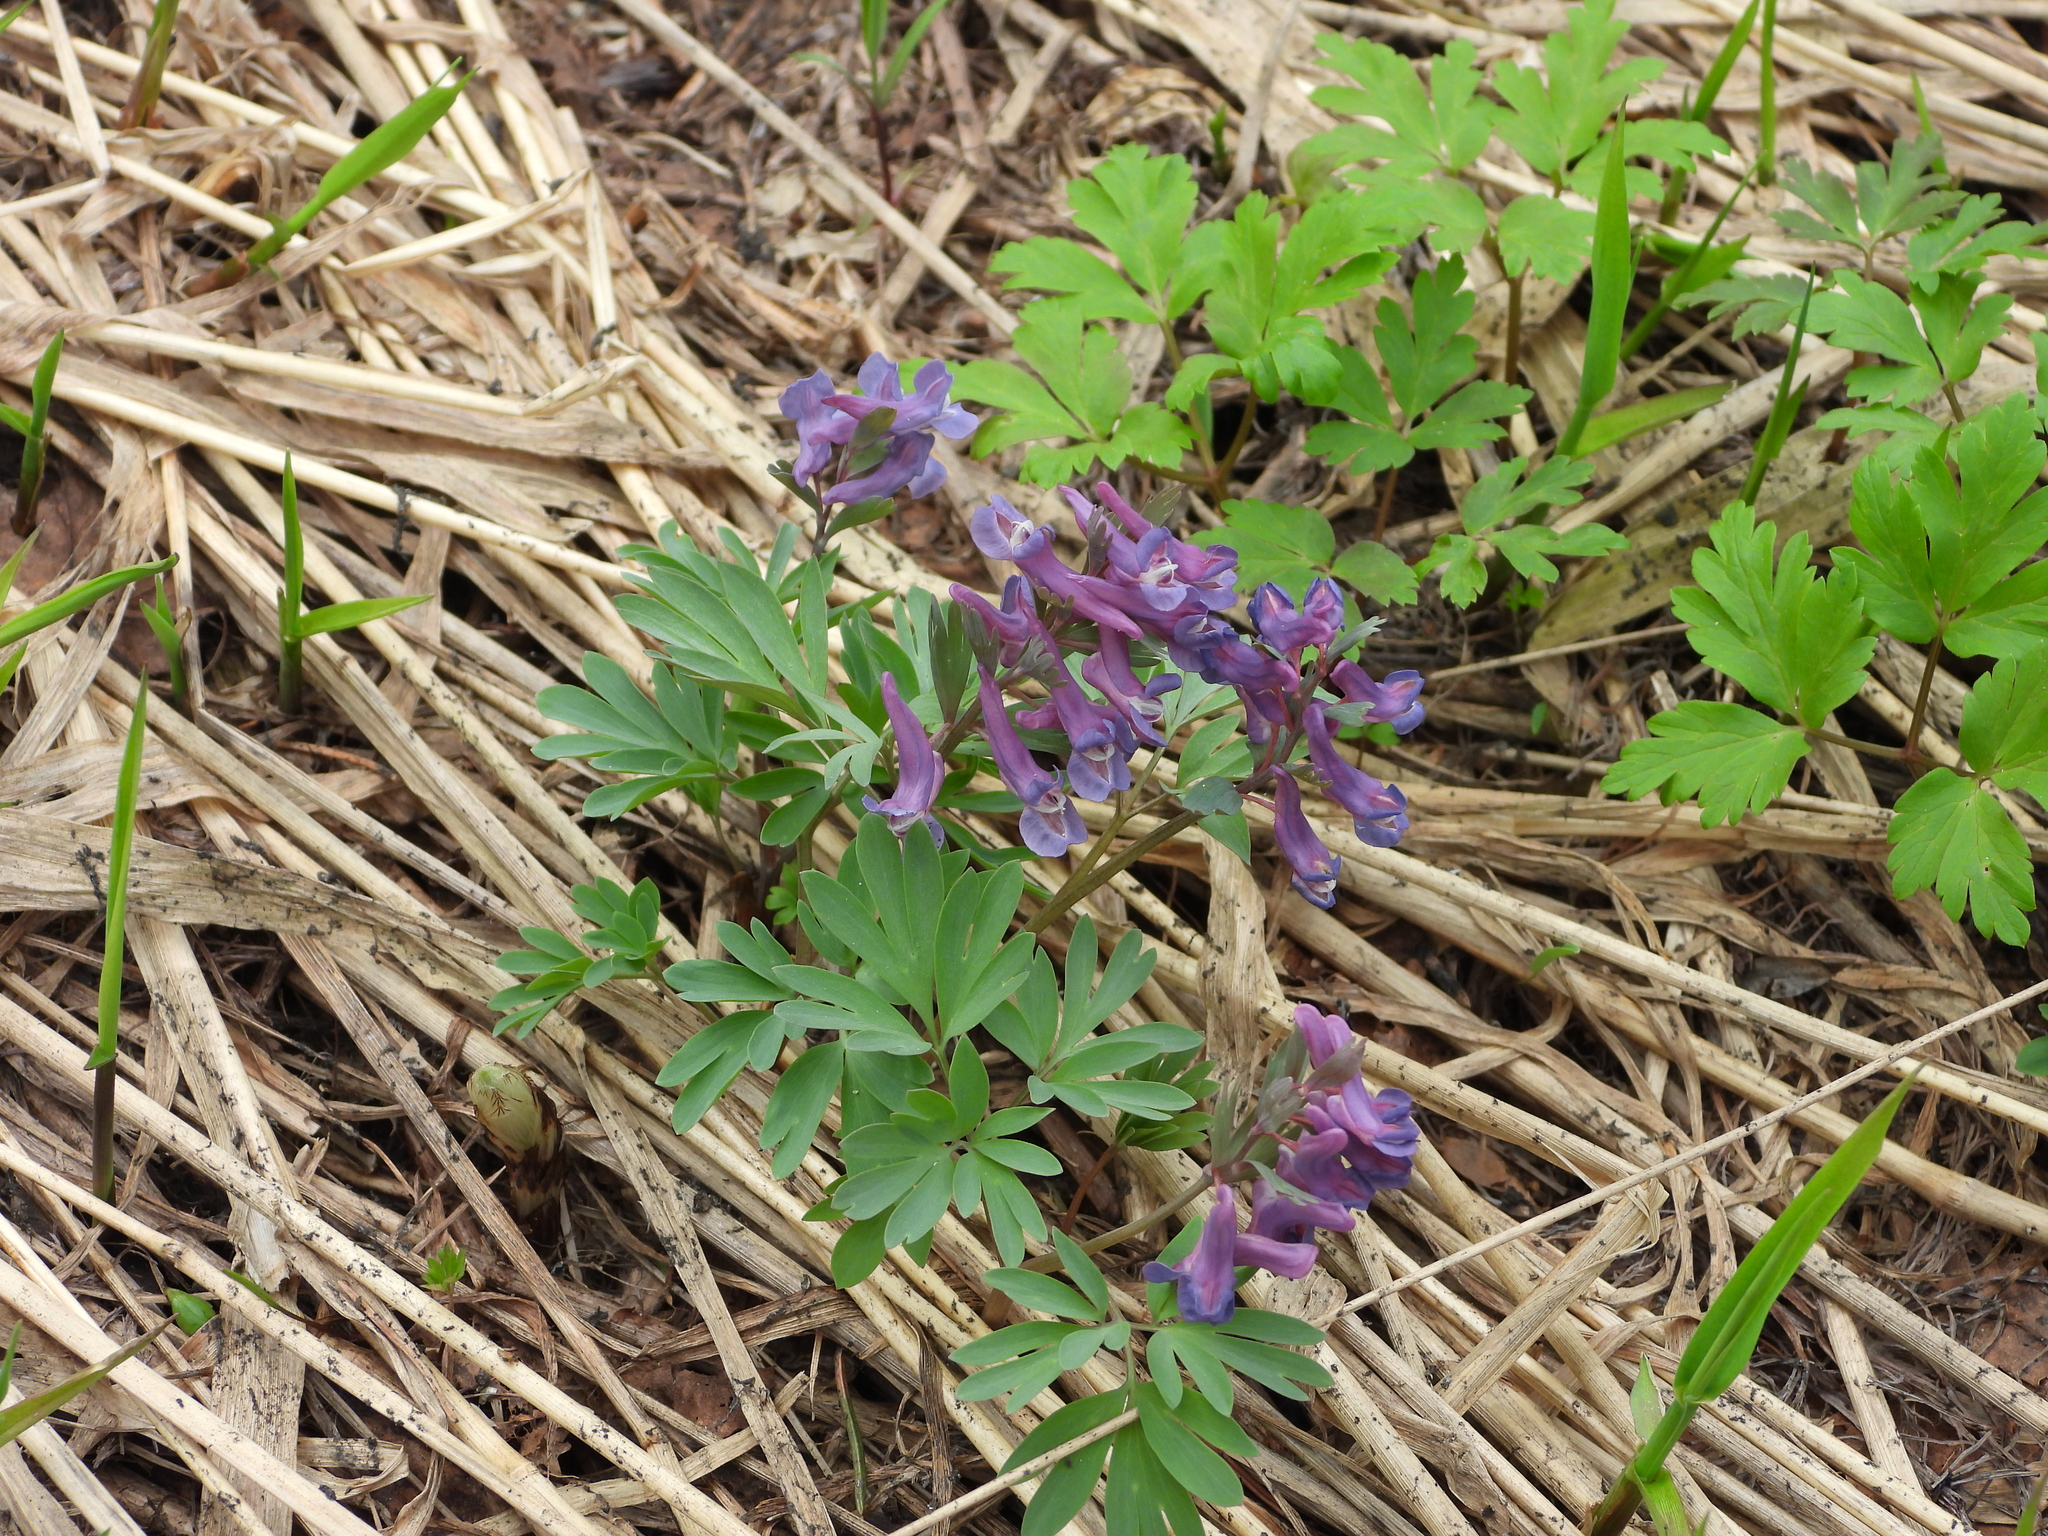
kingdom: Plantae
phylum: Tracheophyta
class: Magnoliopsida
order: Ranunculales
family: Papaveraceae
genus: Corydalis
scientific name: Corydalis solida
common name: Bird-in-a-bush
